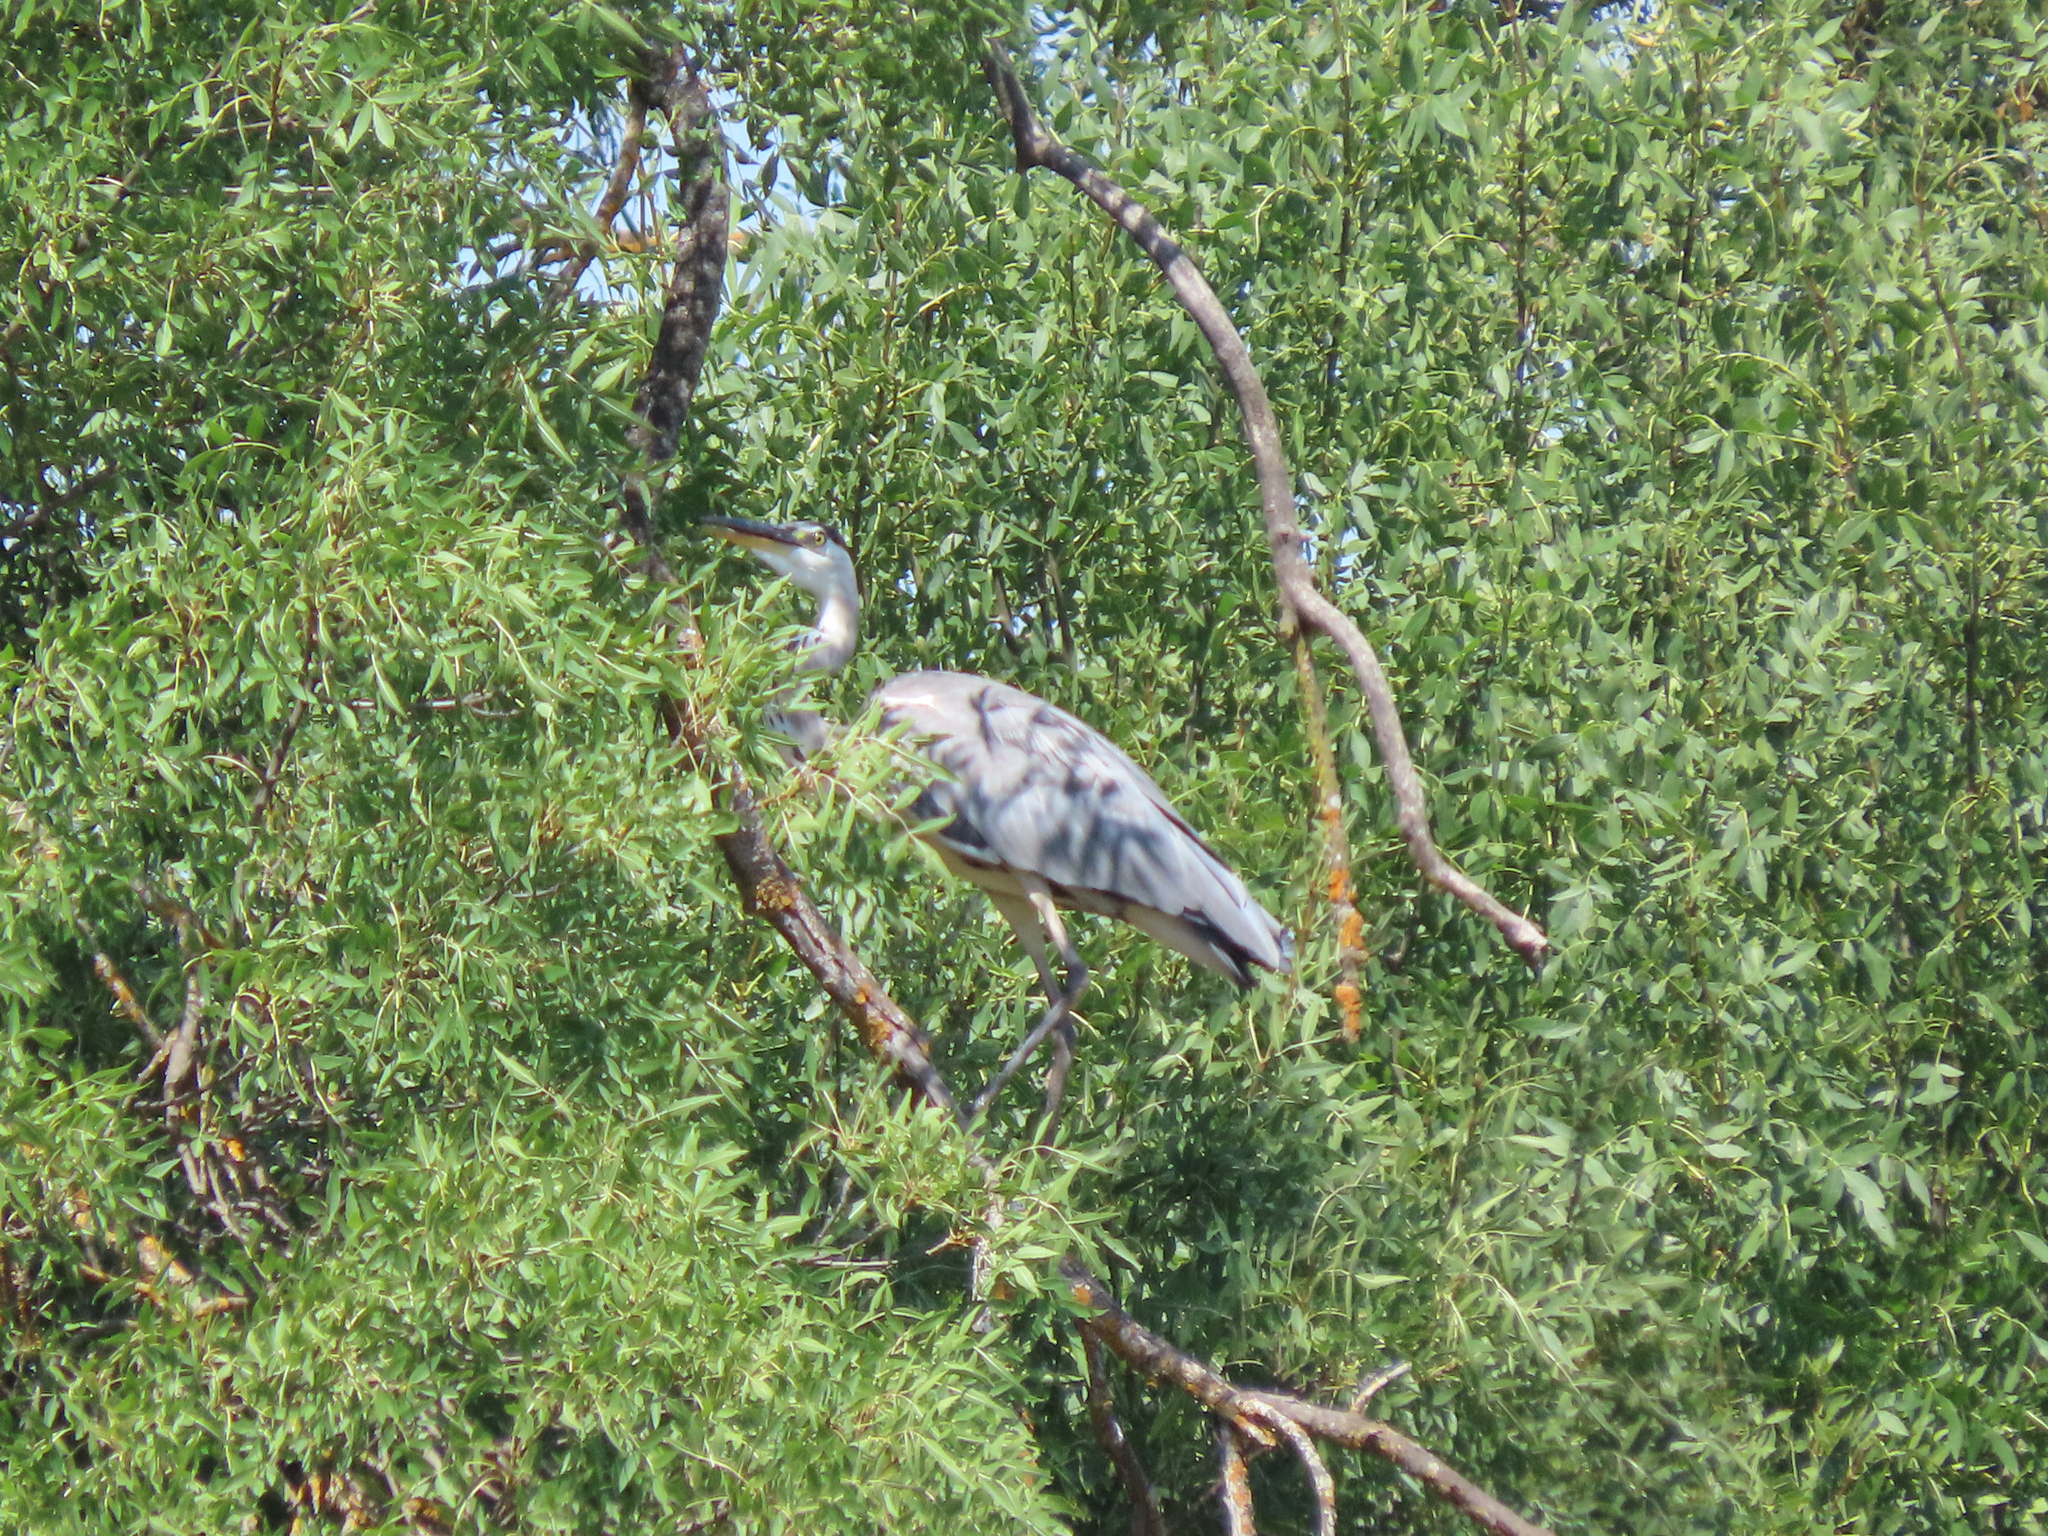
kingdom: Animalia
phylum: Chordata
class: Aves
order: Pelecaniformes
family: Ardeidae
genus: Ardea
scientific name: Ardea cinerea
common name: Grey heron
